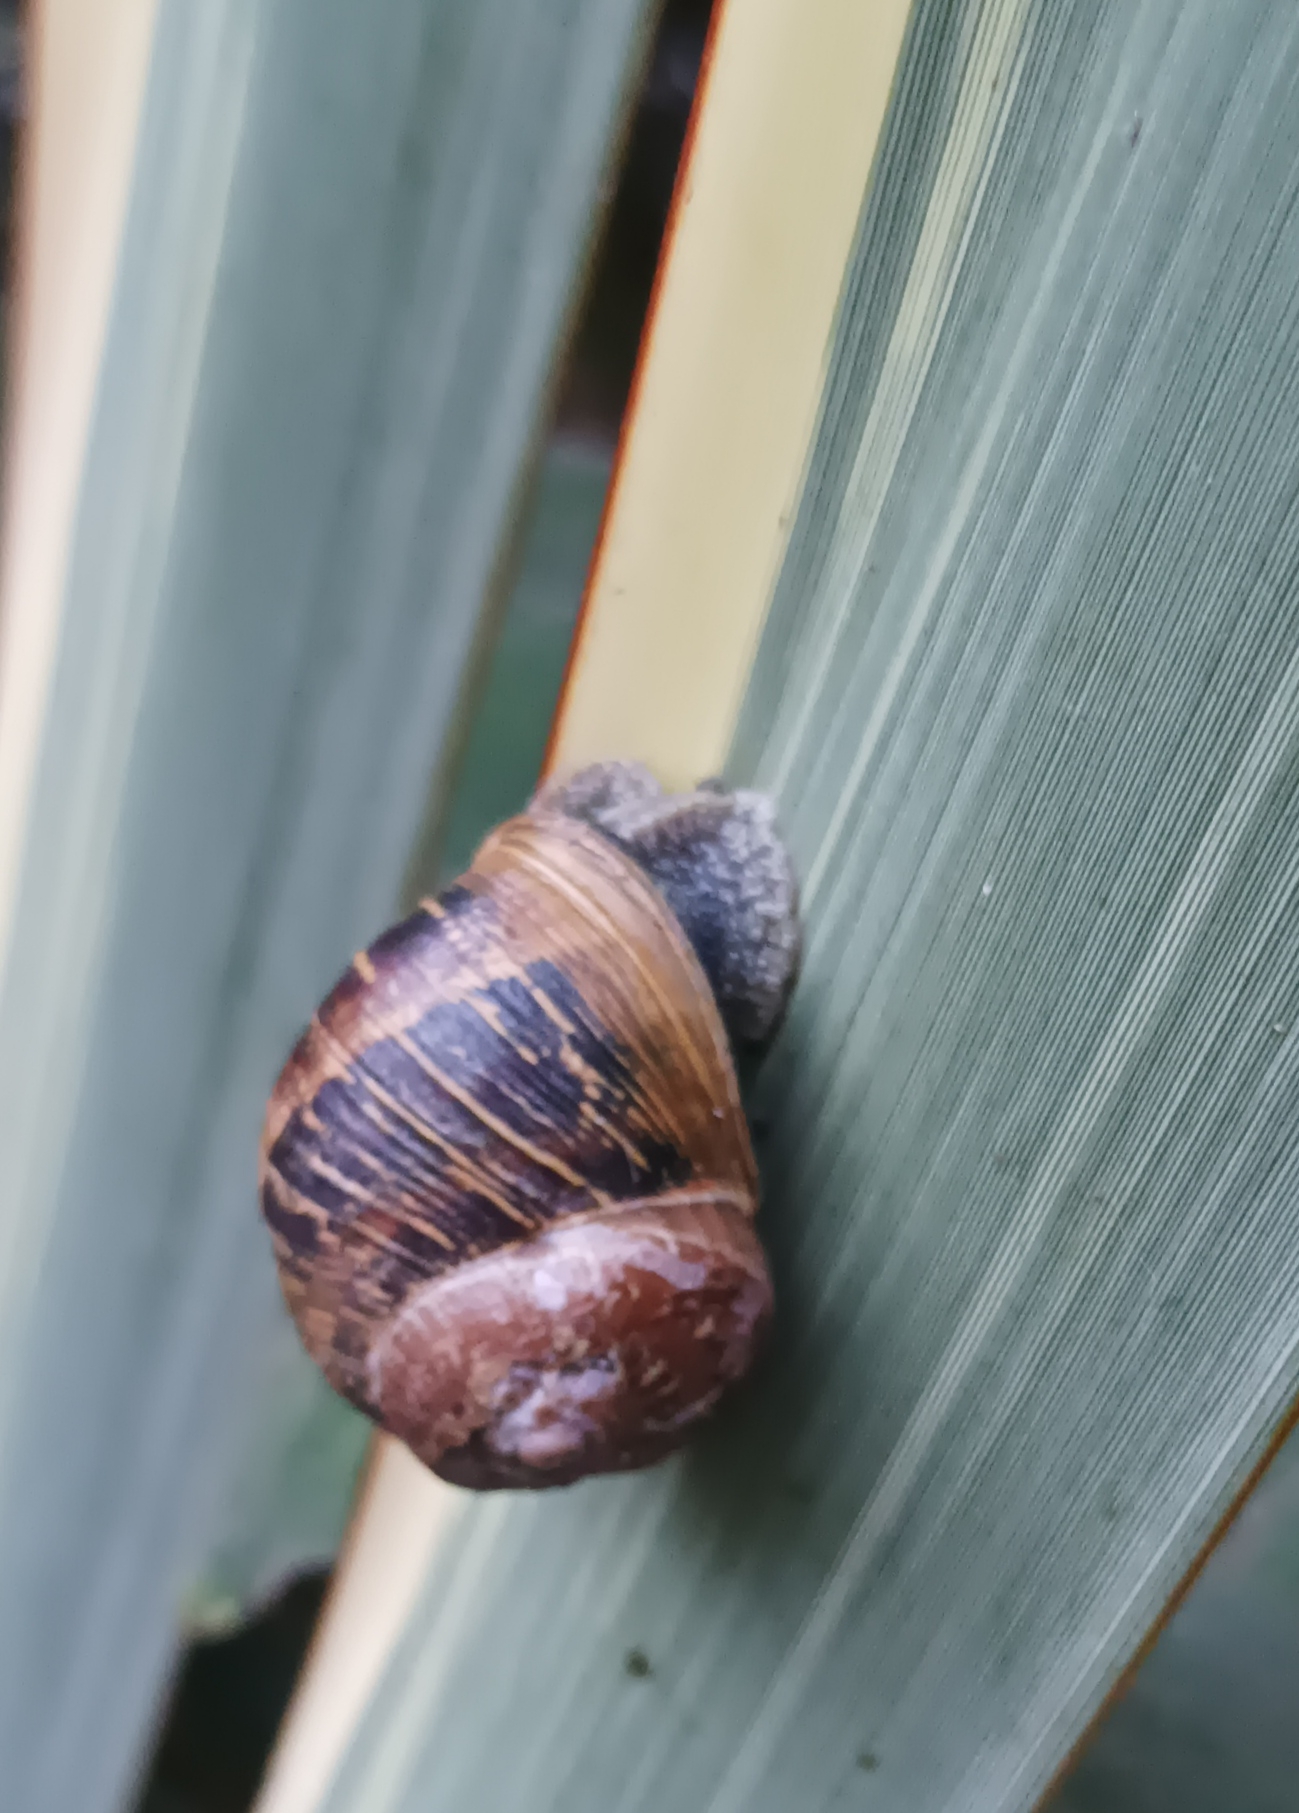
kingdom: Animalia
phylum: Mollusca
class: Gastropoda
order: Stylommatophora
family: Helicidae
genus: Cornu
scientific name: Cornu aspersum
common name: Brown garden snail
